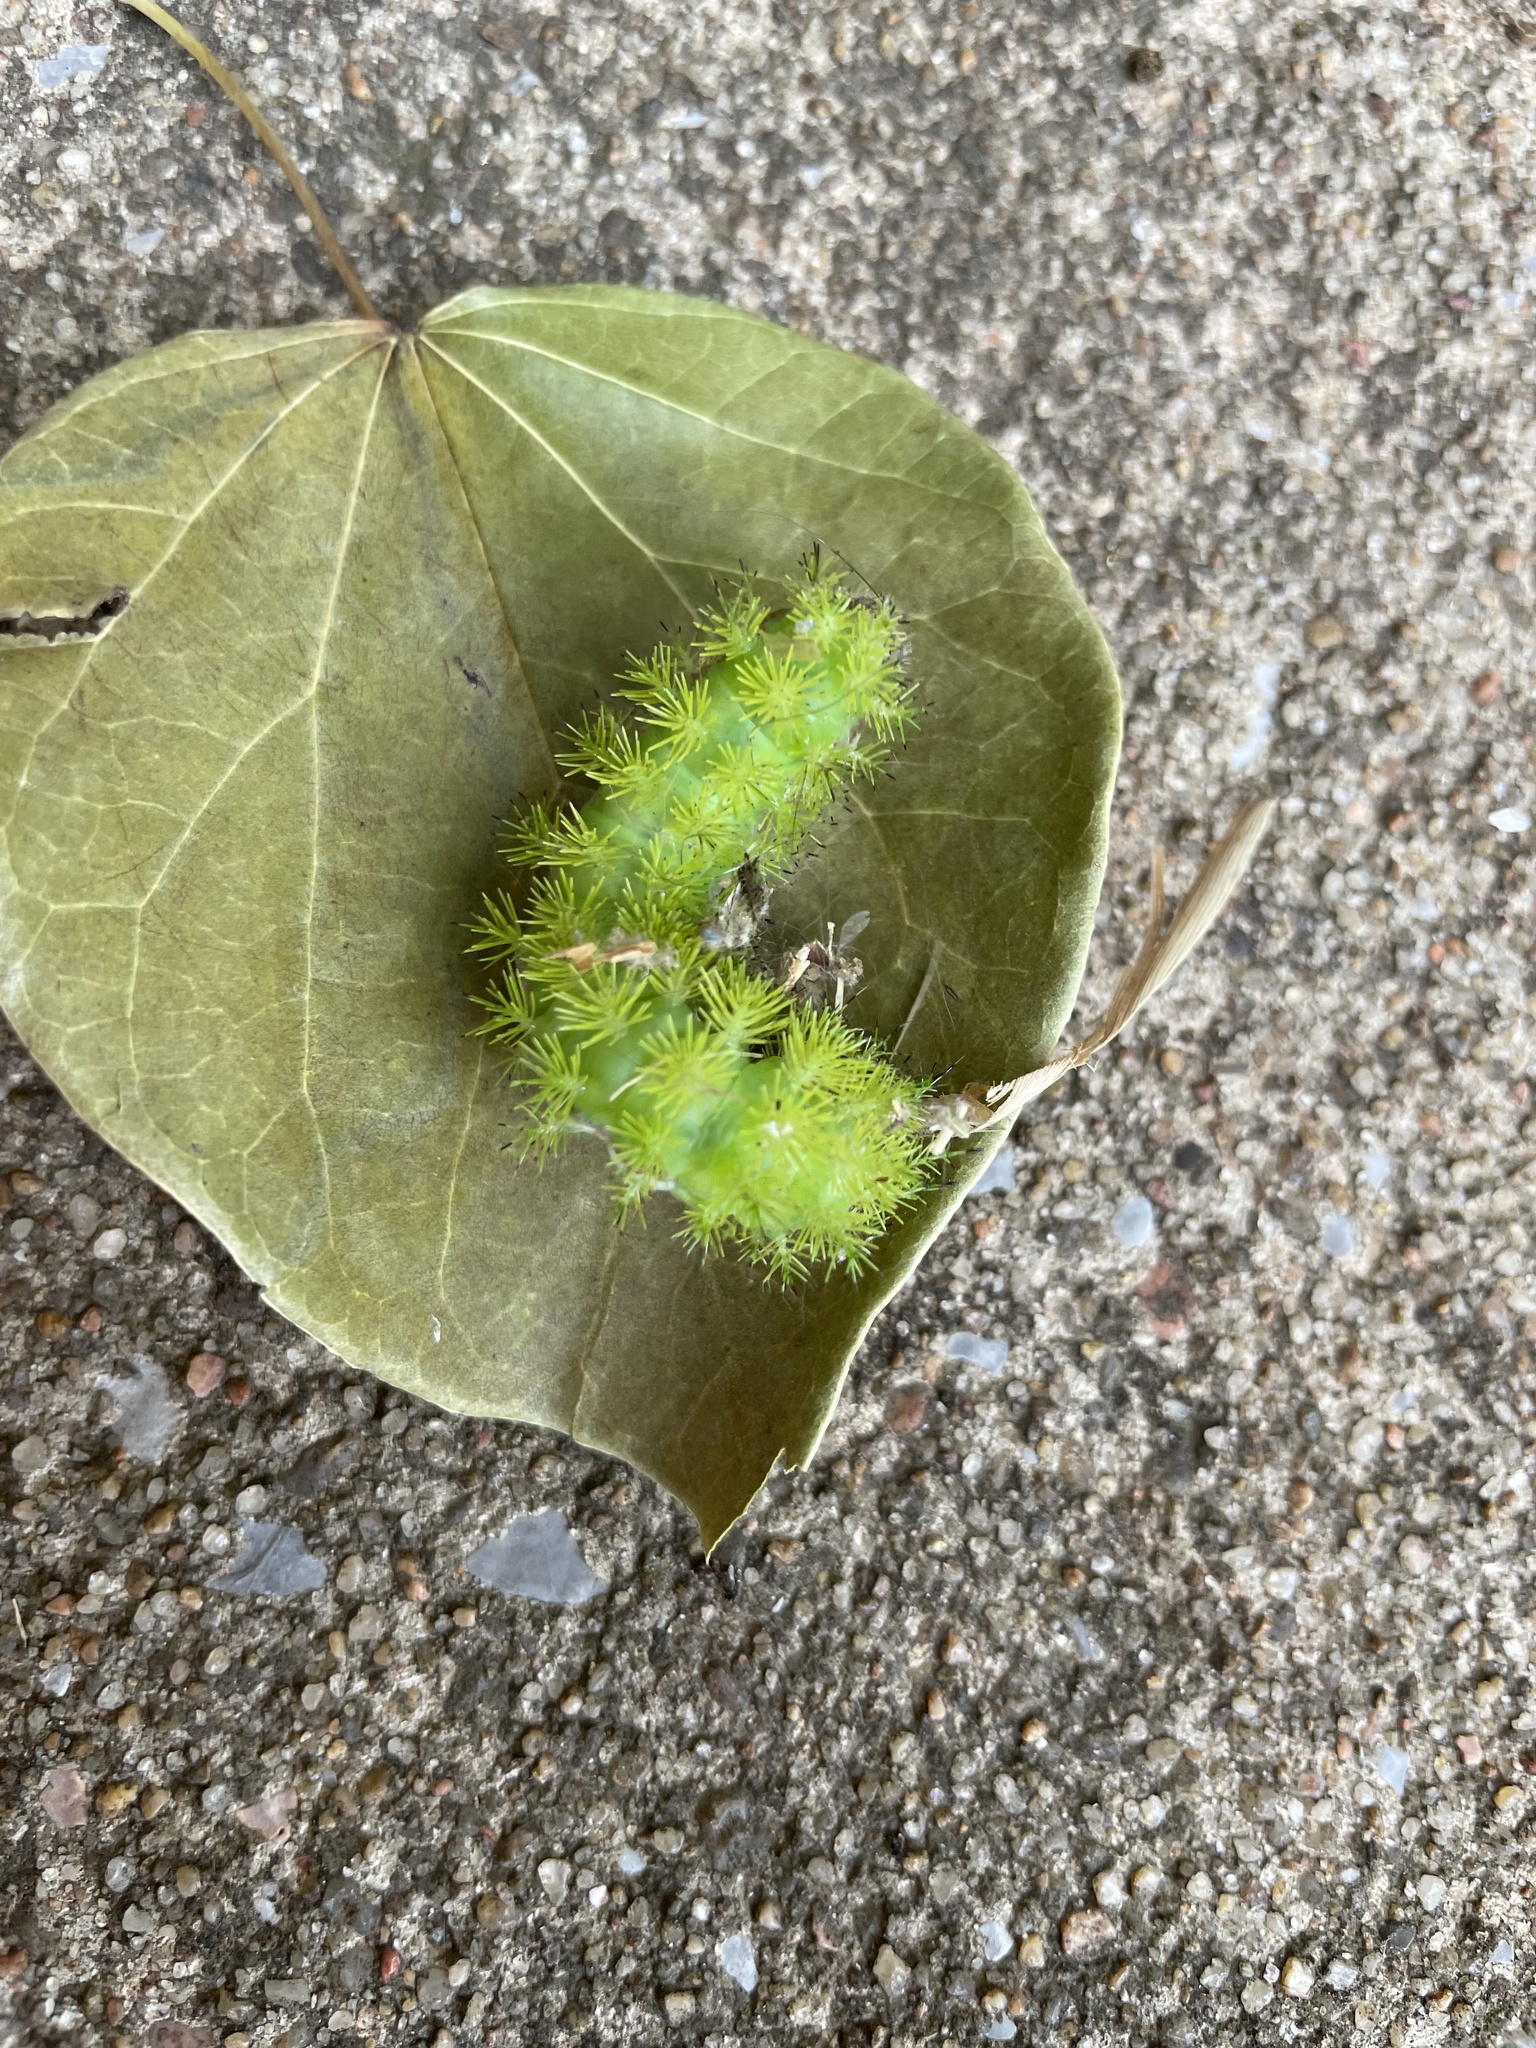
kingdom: Animalia
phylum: Arthropoda
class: Insecta
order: Lepidoptera
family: Saturniidae
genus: Automeris
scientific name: Automeris io
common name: Io moth
